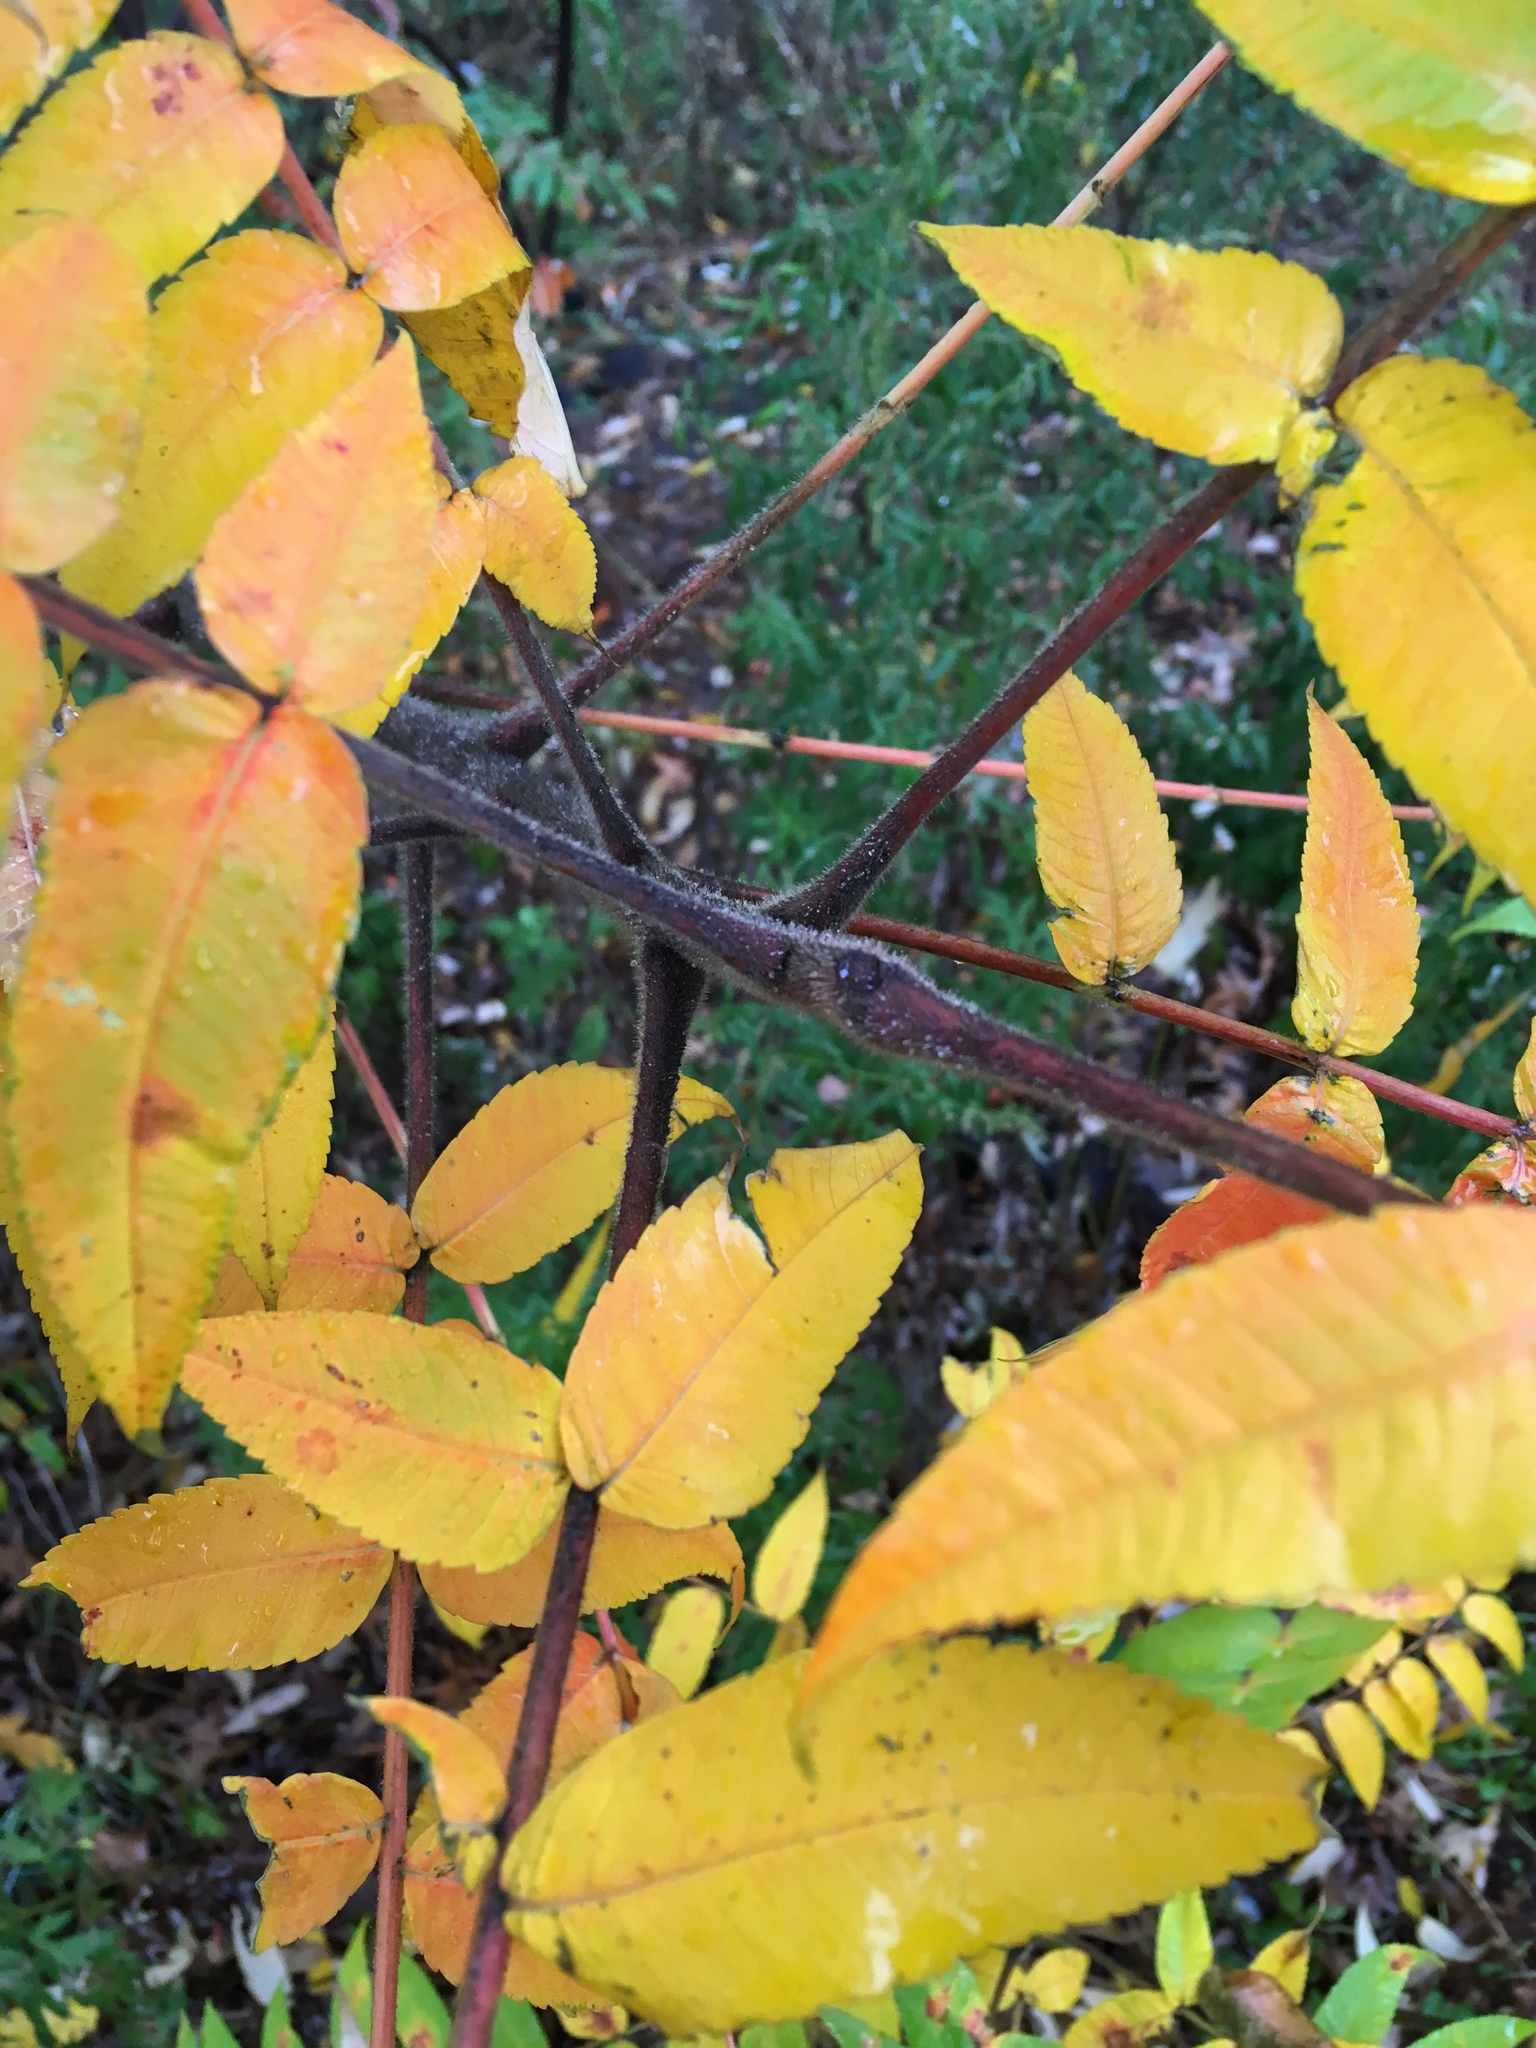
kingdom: Plantae
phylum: Tracheophyta
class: Magnoliopsida
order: Sapindales
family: Anacardiaceae
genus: Rhus
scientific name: Rhus typhina
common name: Staghorn sumac
